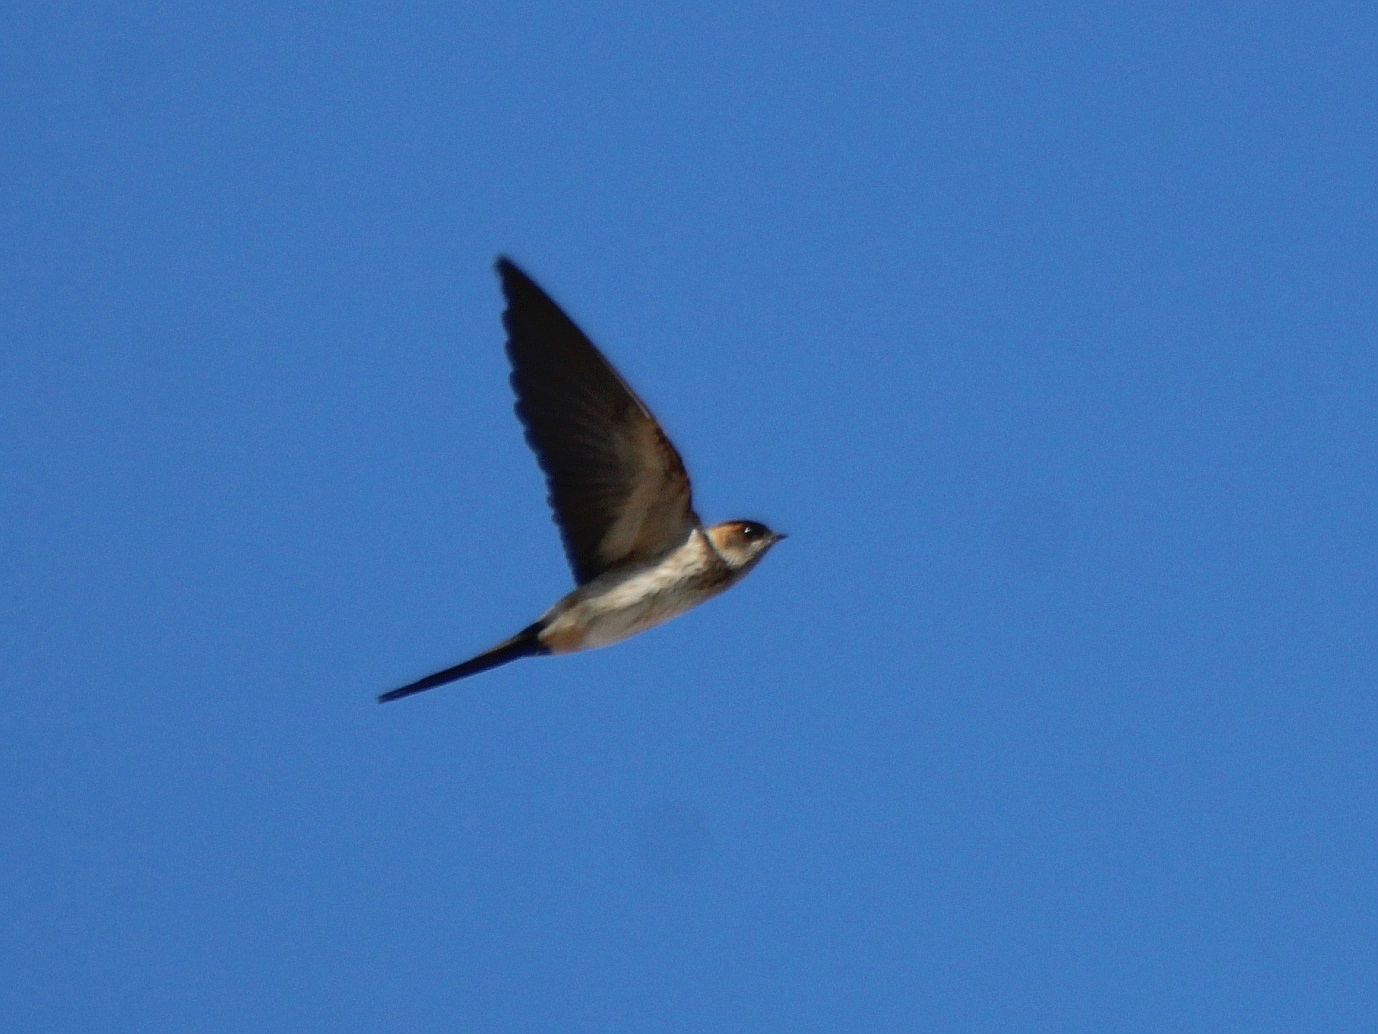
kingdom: Animalia
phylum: Chordata
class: Aves
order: Passeriformes
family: Hirundinidae
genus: Cecropis
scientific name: Cecropis daurica
